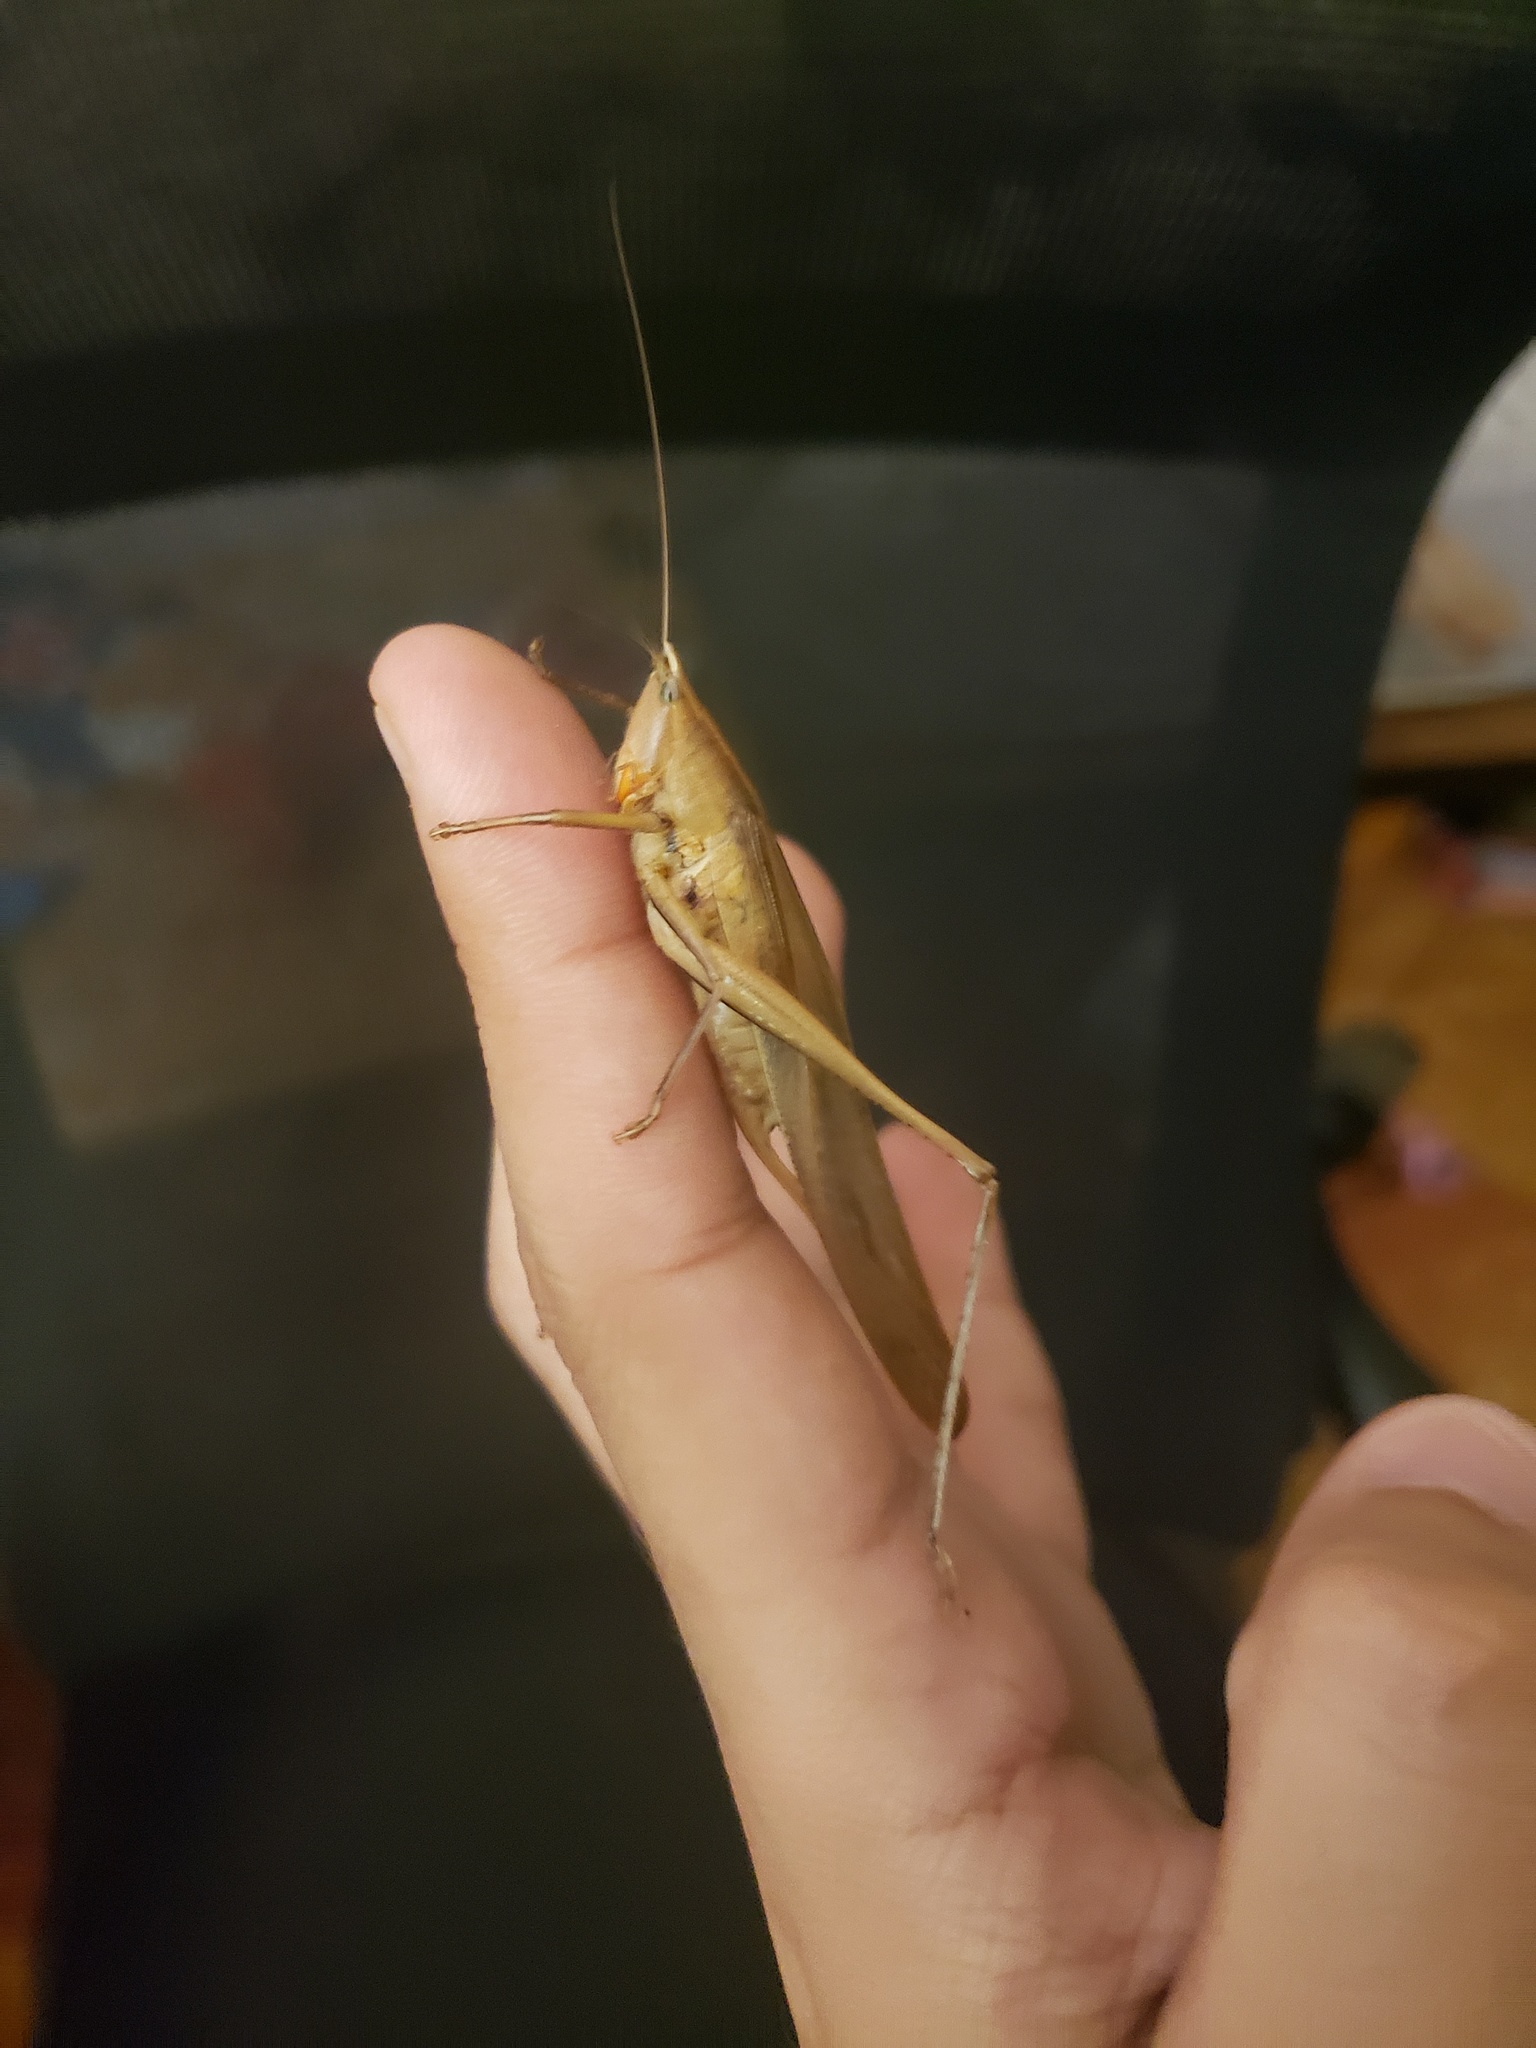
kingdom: Animalia
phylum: Arthropoda
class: Insecta
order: Orthoptera
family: Tettigoniidae
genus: Neoconocephalus
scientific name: Neoconocephalus triops
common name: Broad-tipped conehead
